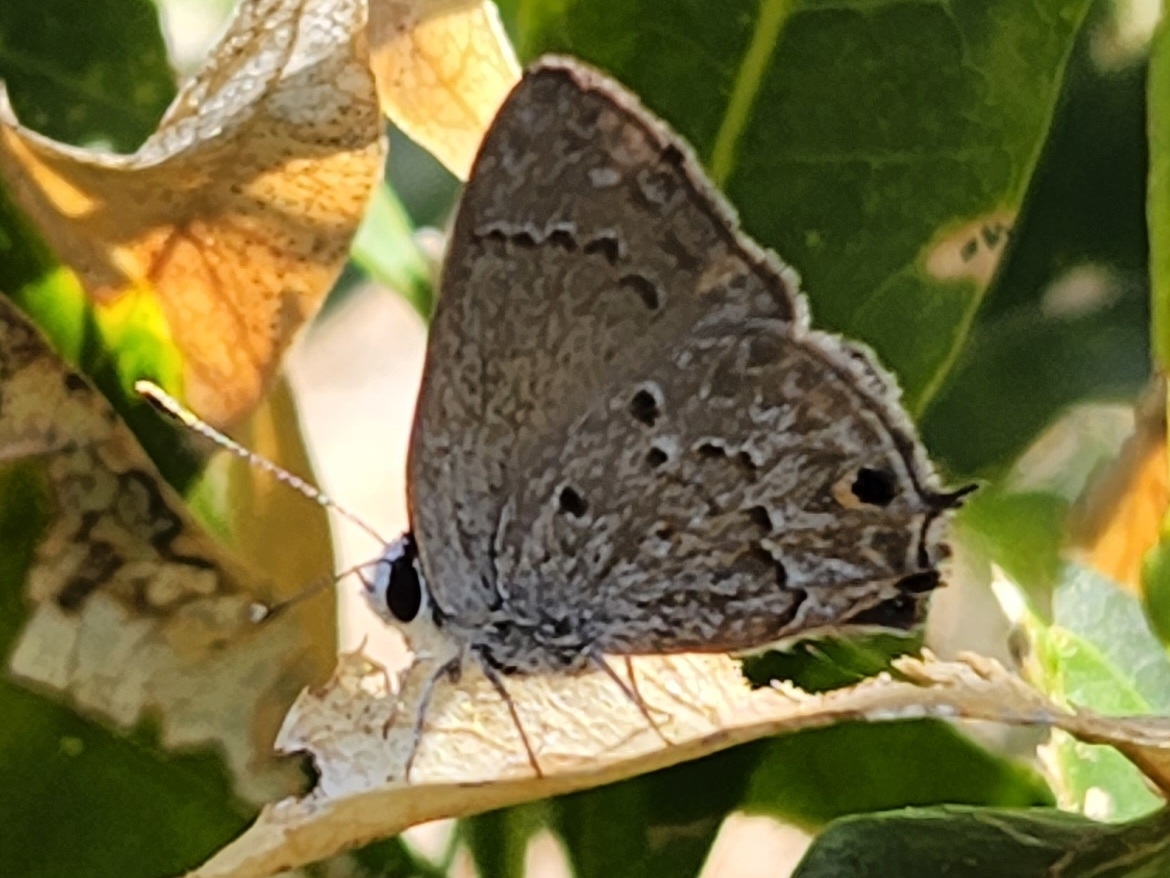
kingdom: Animalia
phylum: Arthropoda
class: Insecta
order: Lepidoptera
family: Lycaenidae
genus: Callicista
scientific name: Callicista columella
